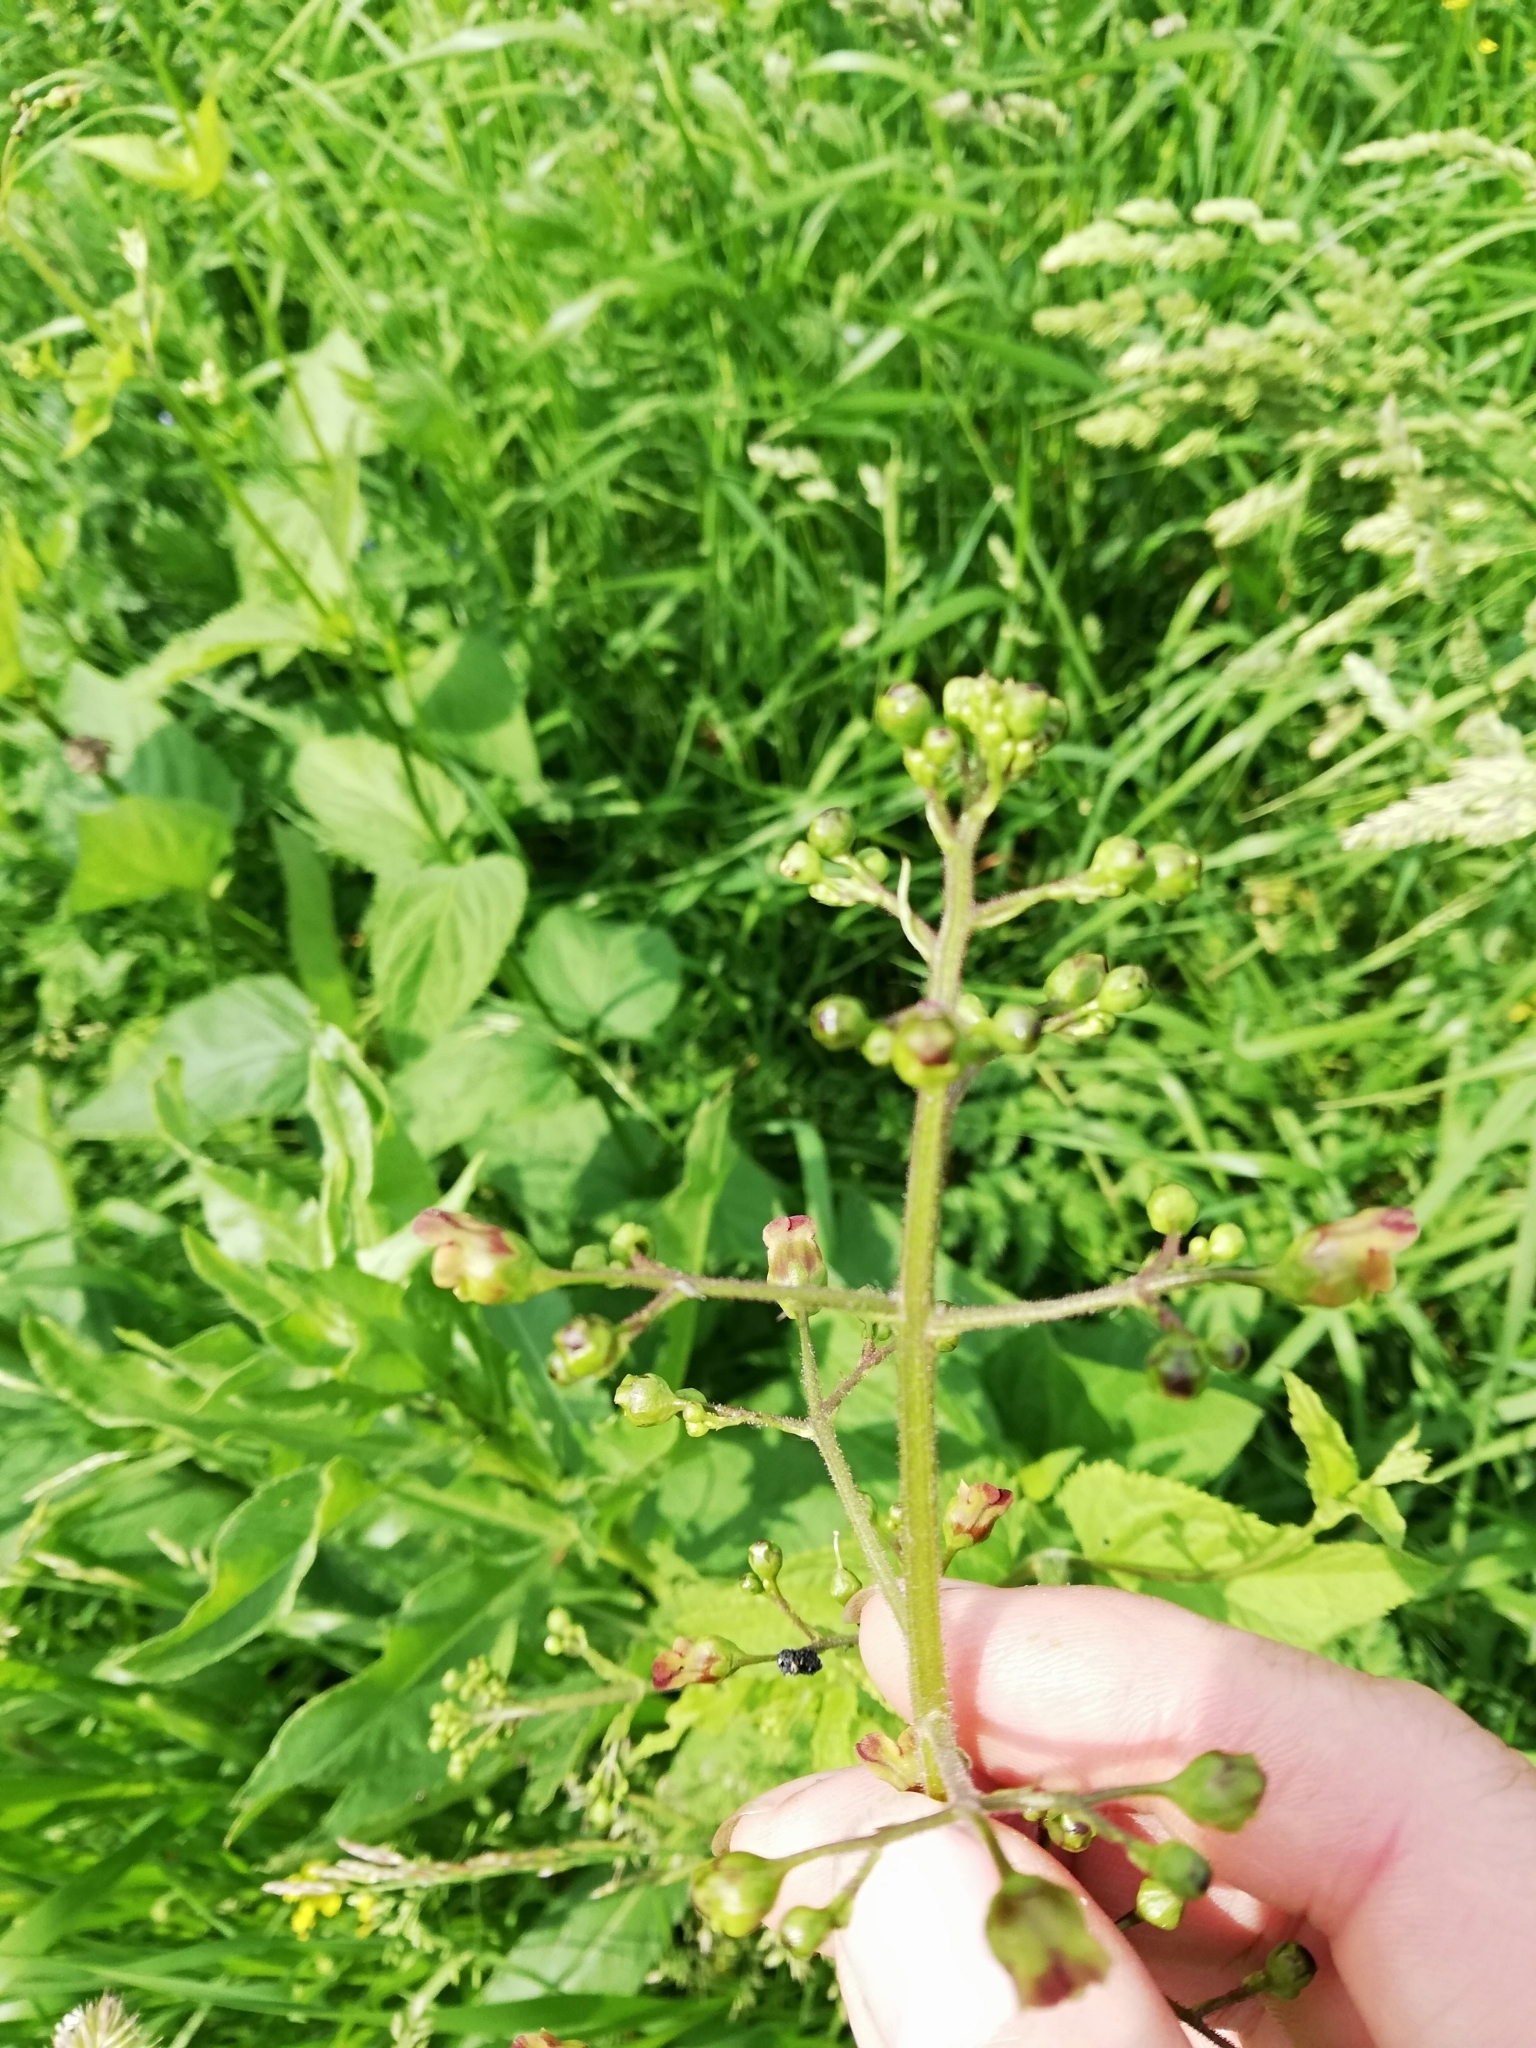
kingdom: Plantae
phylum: Tracheophyta
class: Magnoliopsida
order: Lamiales
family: Scrophulariaceae
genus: Scrophularia
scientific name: Scrophularia nodosa
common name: Common figwort
